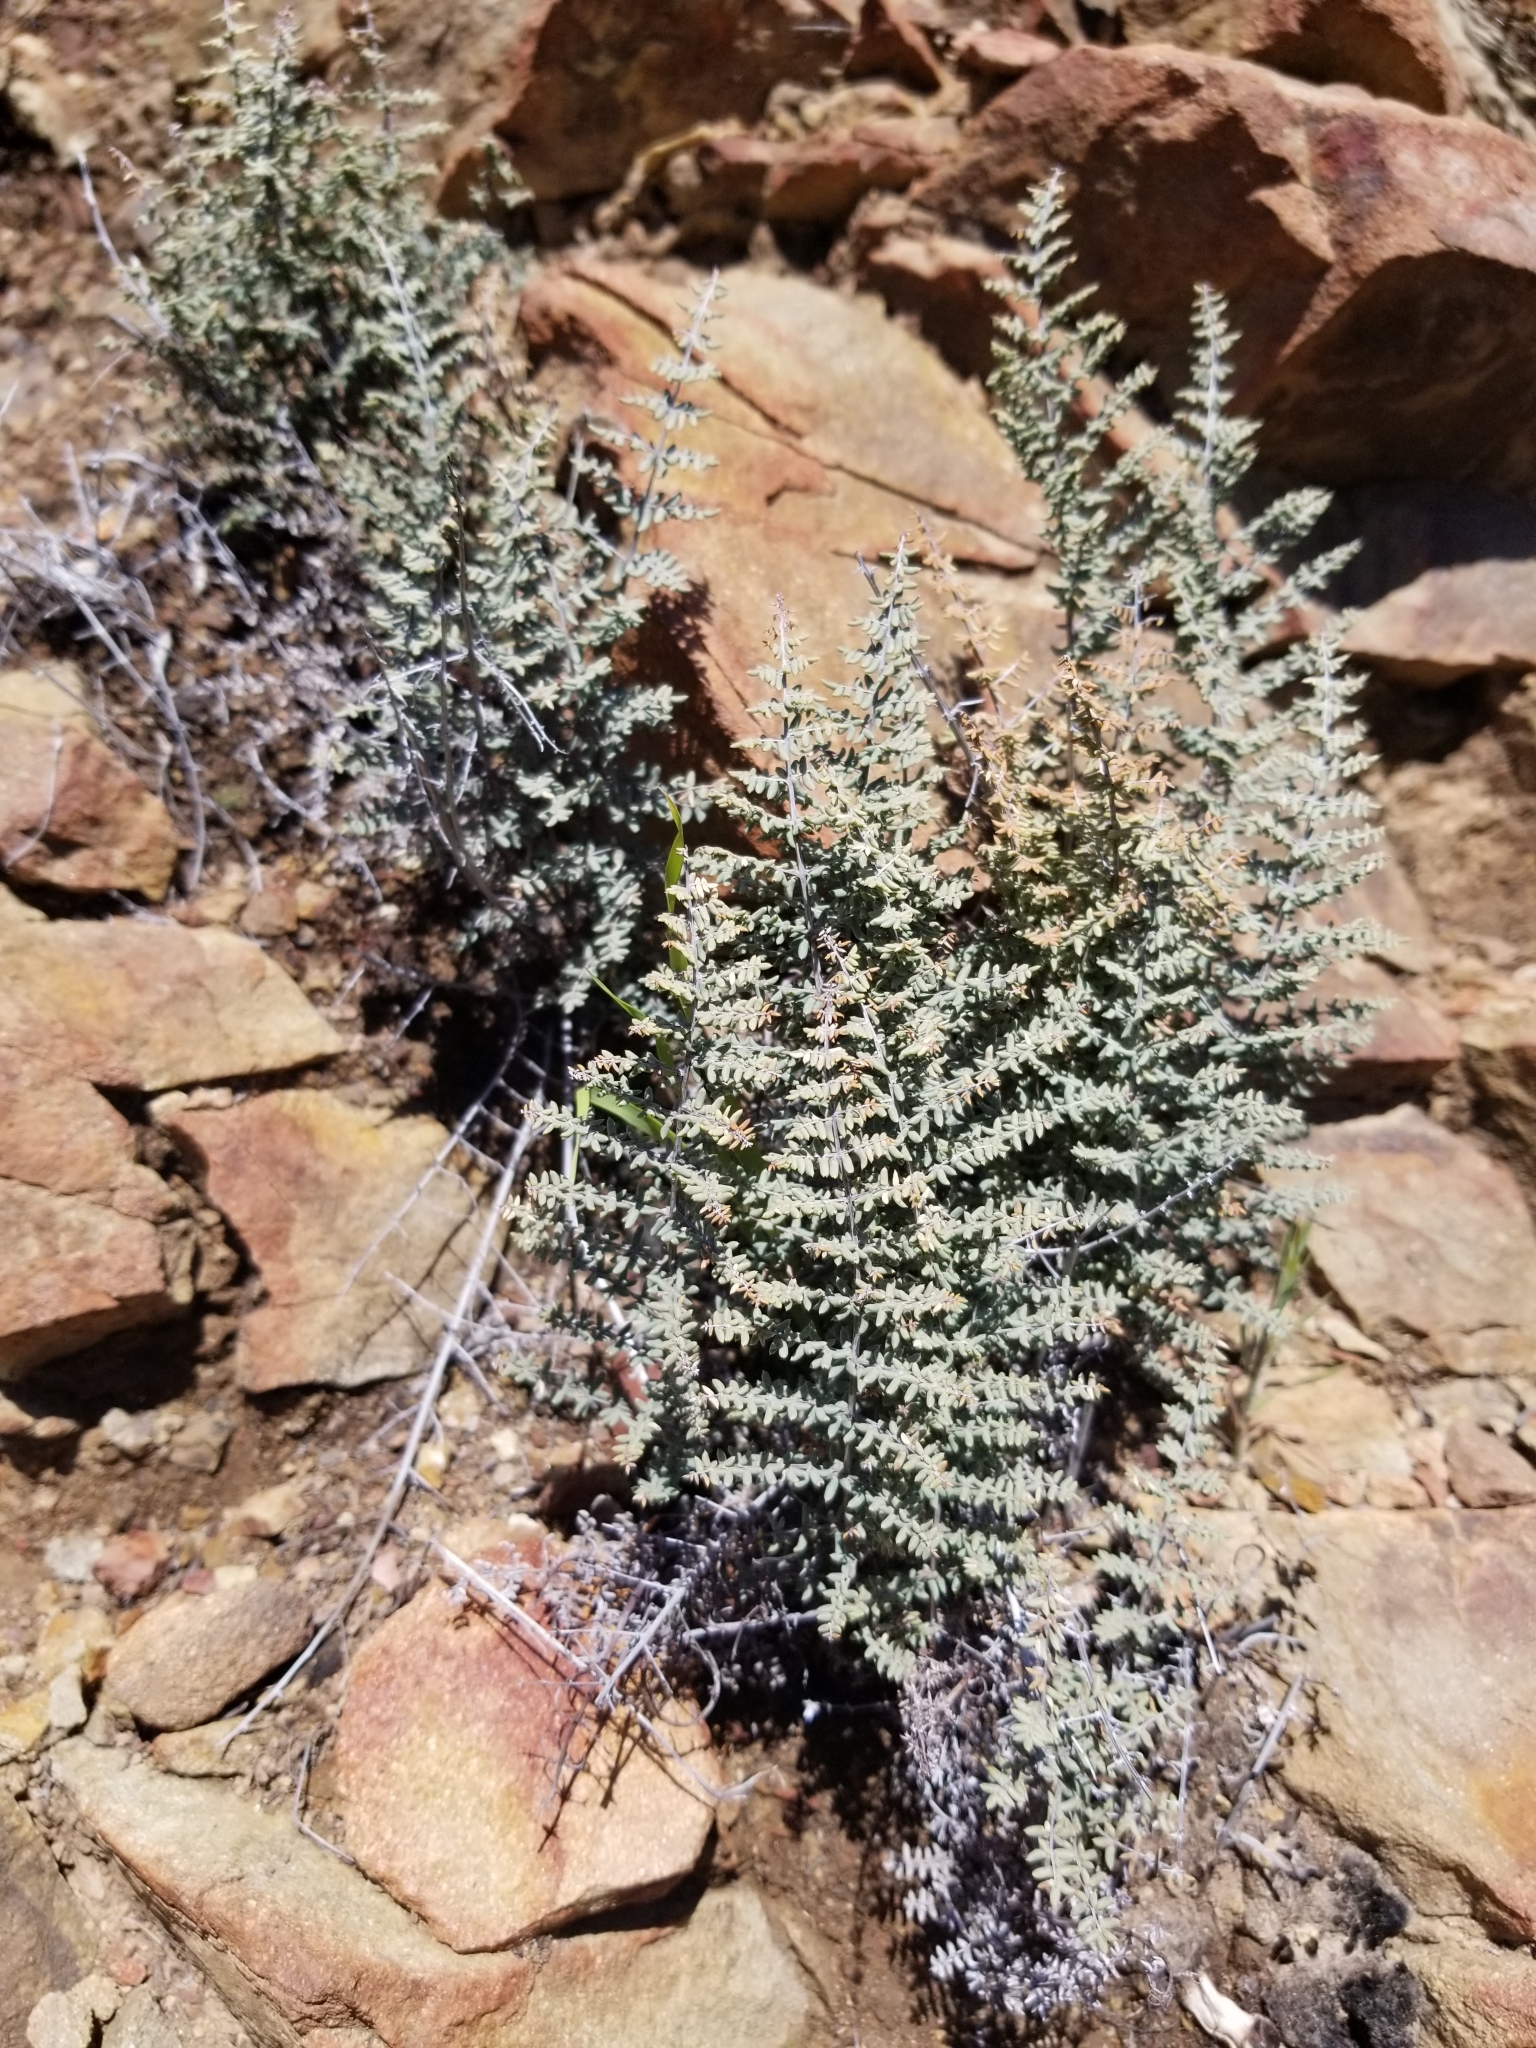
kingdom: Plantae
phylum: Tracheophyta
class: Polypodiopsida
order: Polypodiales
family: Pteridaceae
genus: Pellaea
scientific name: Pellaea mucronata
